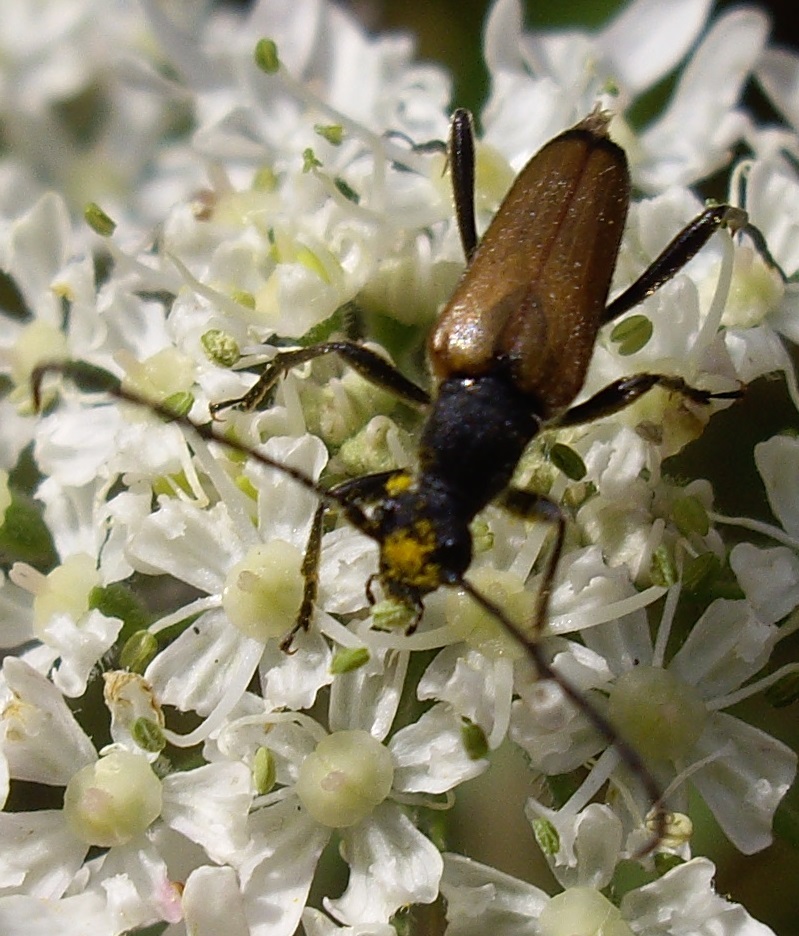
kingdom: Animalia
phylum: Arthropoda
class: Insecta
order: Coleoptera
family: Cerambycidae
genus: Anastrangalia
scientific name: Anastrangalia sanguinolenta
